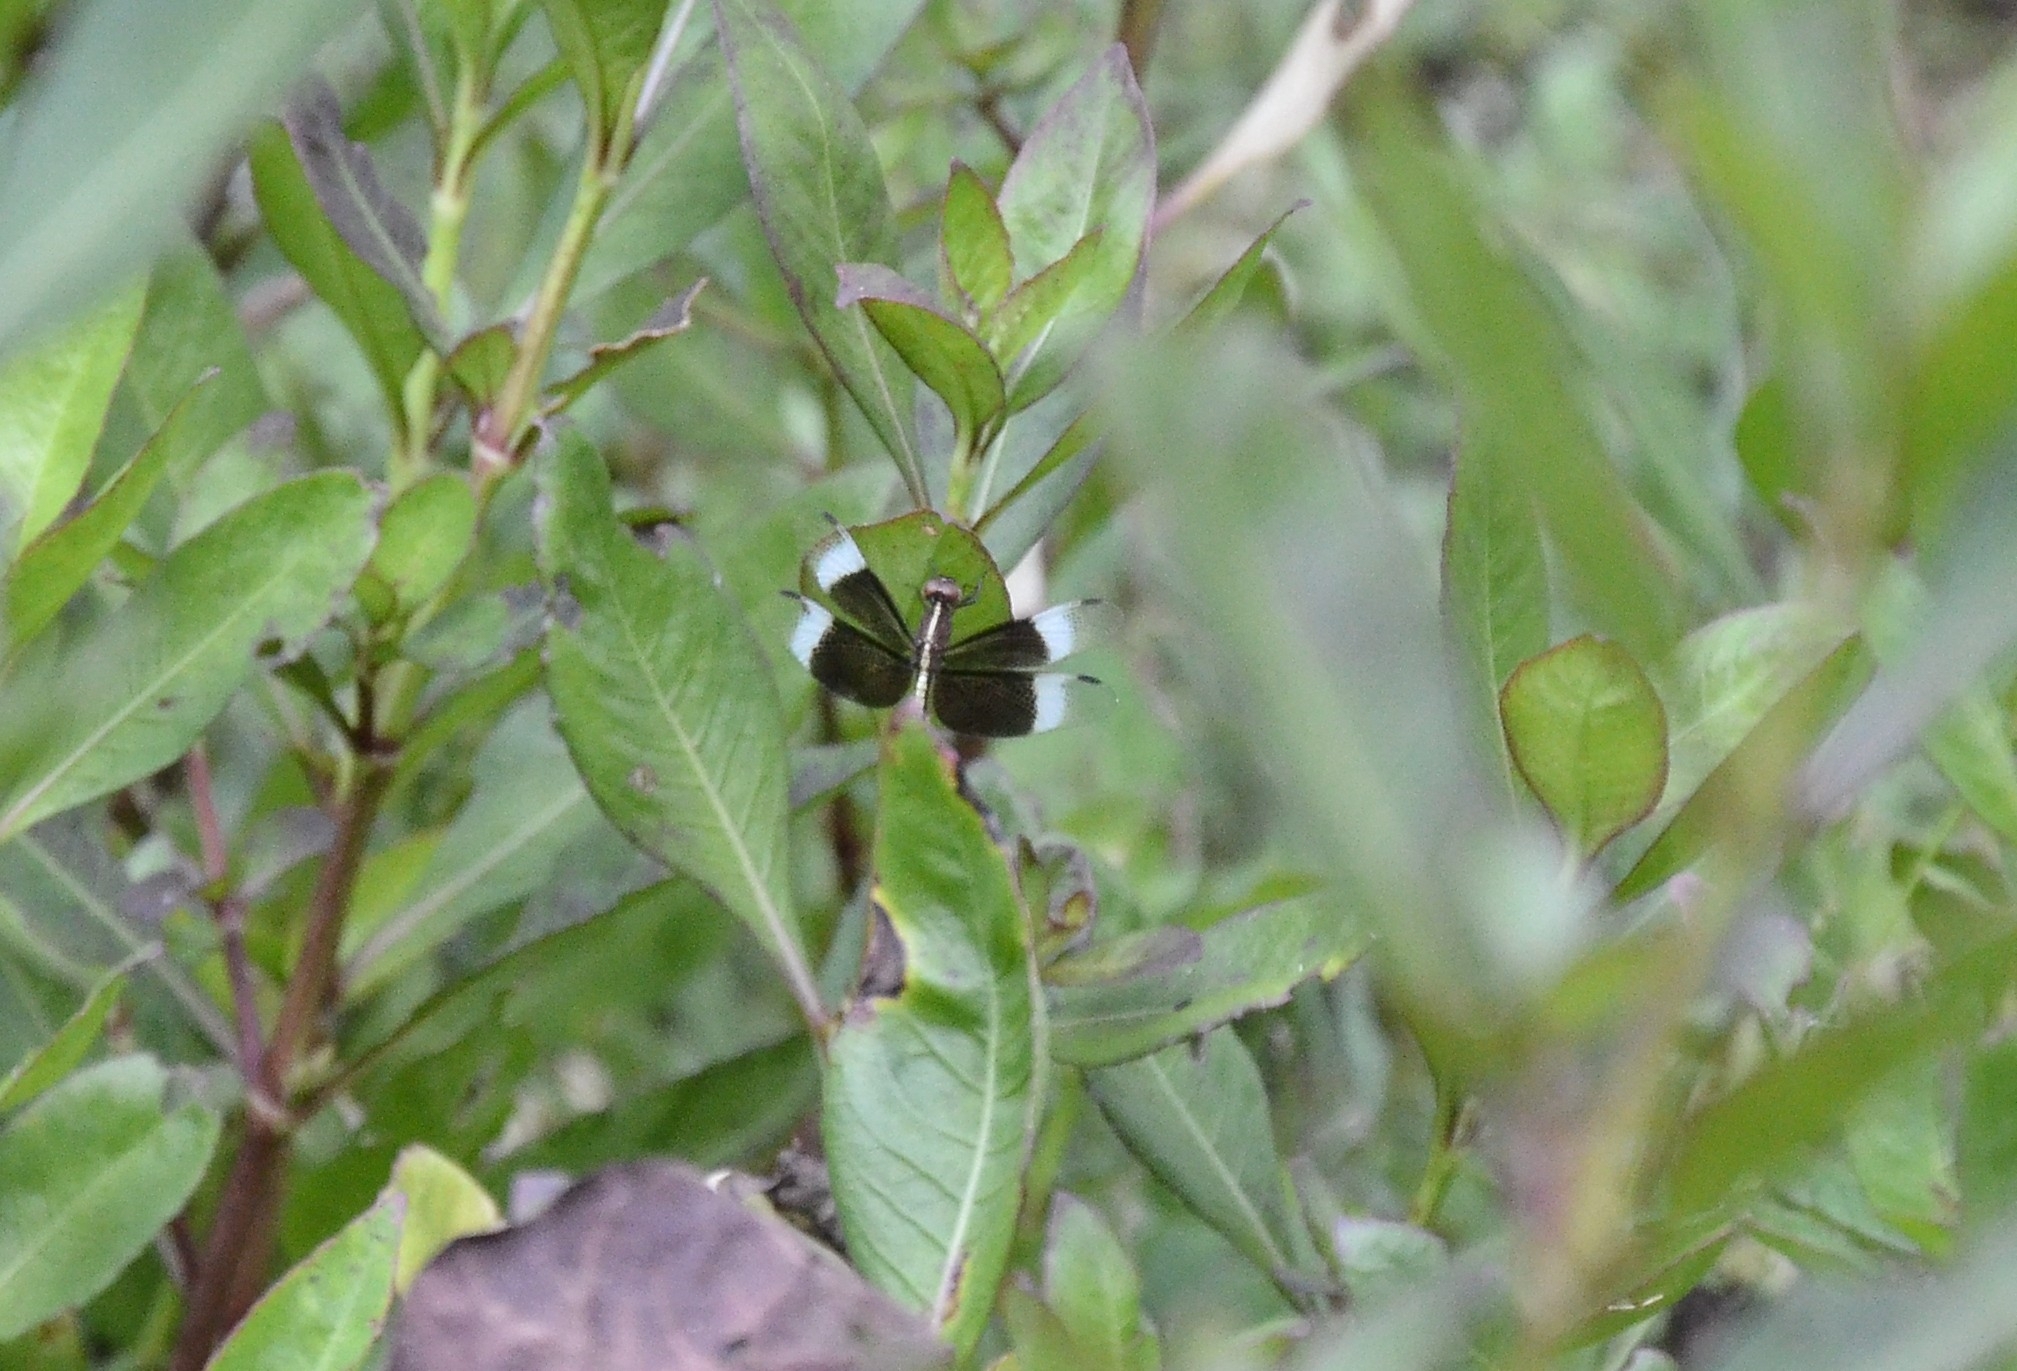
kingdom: Animalia
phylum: Arthropoda
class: Insecta
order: Odonata
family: Libellulidae
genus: Neurothemis
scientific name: Neurothemis tullia
